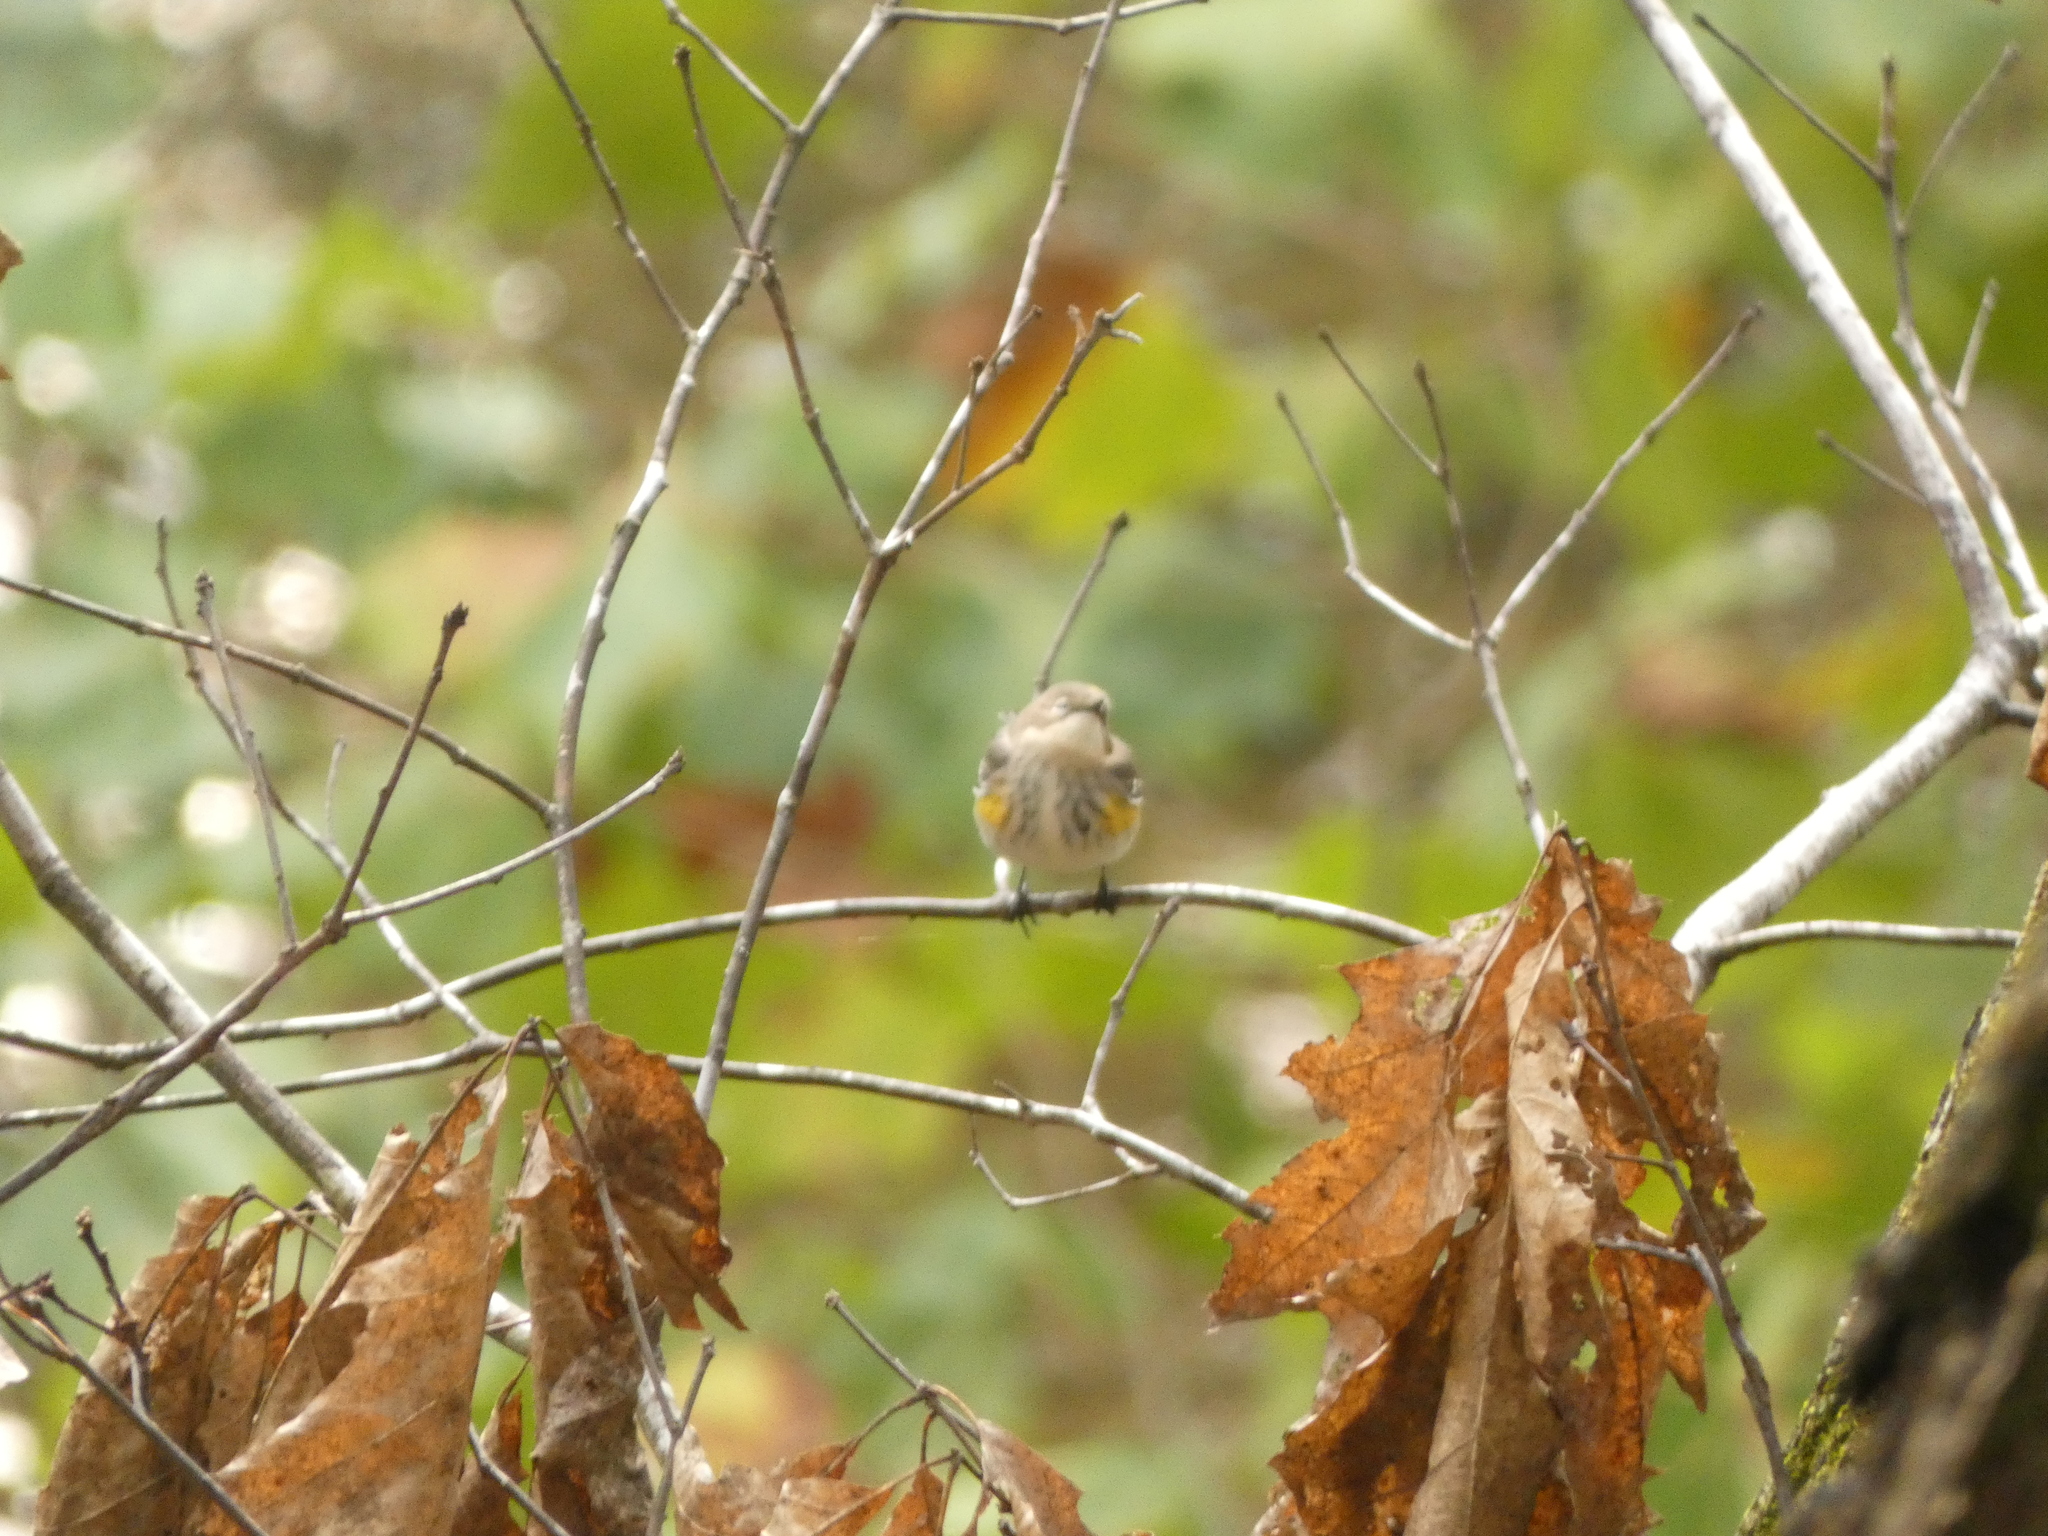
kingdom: Animalia
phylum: Chordata
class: Aves
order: Passeriformes
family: Parulidae
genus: Setophaga
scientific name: Setophaga coronata
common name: Myrtle warbler
